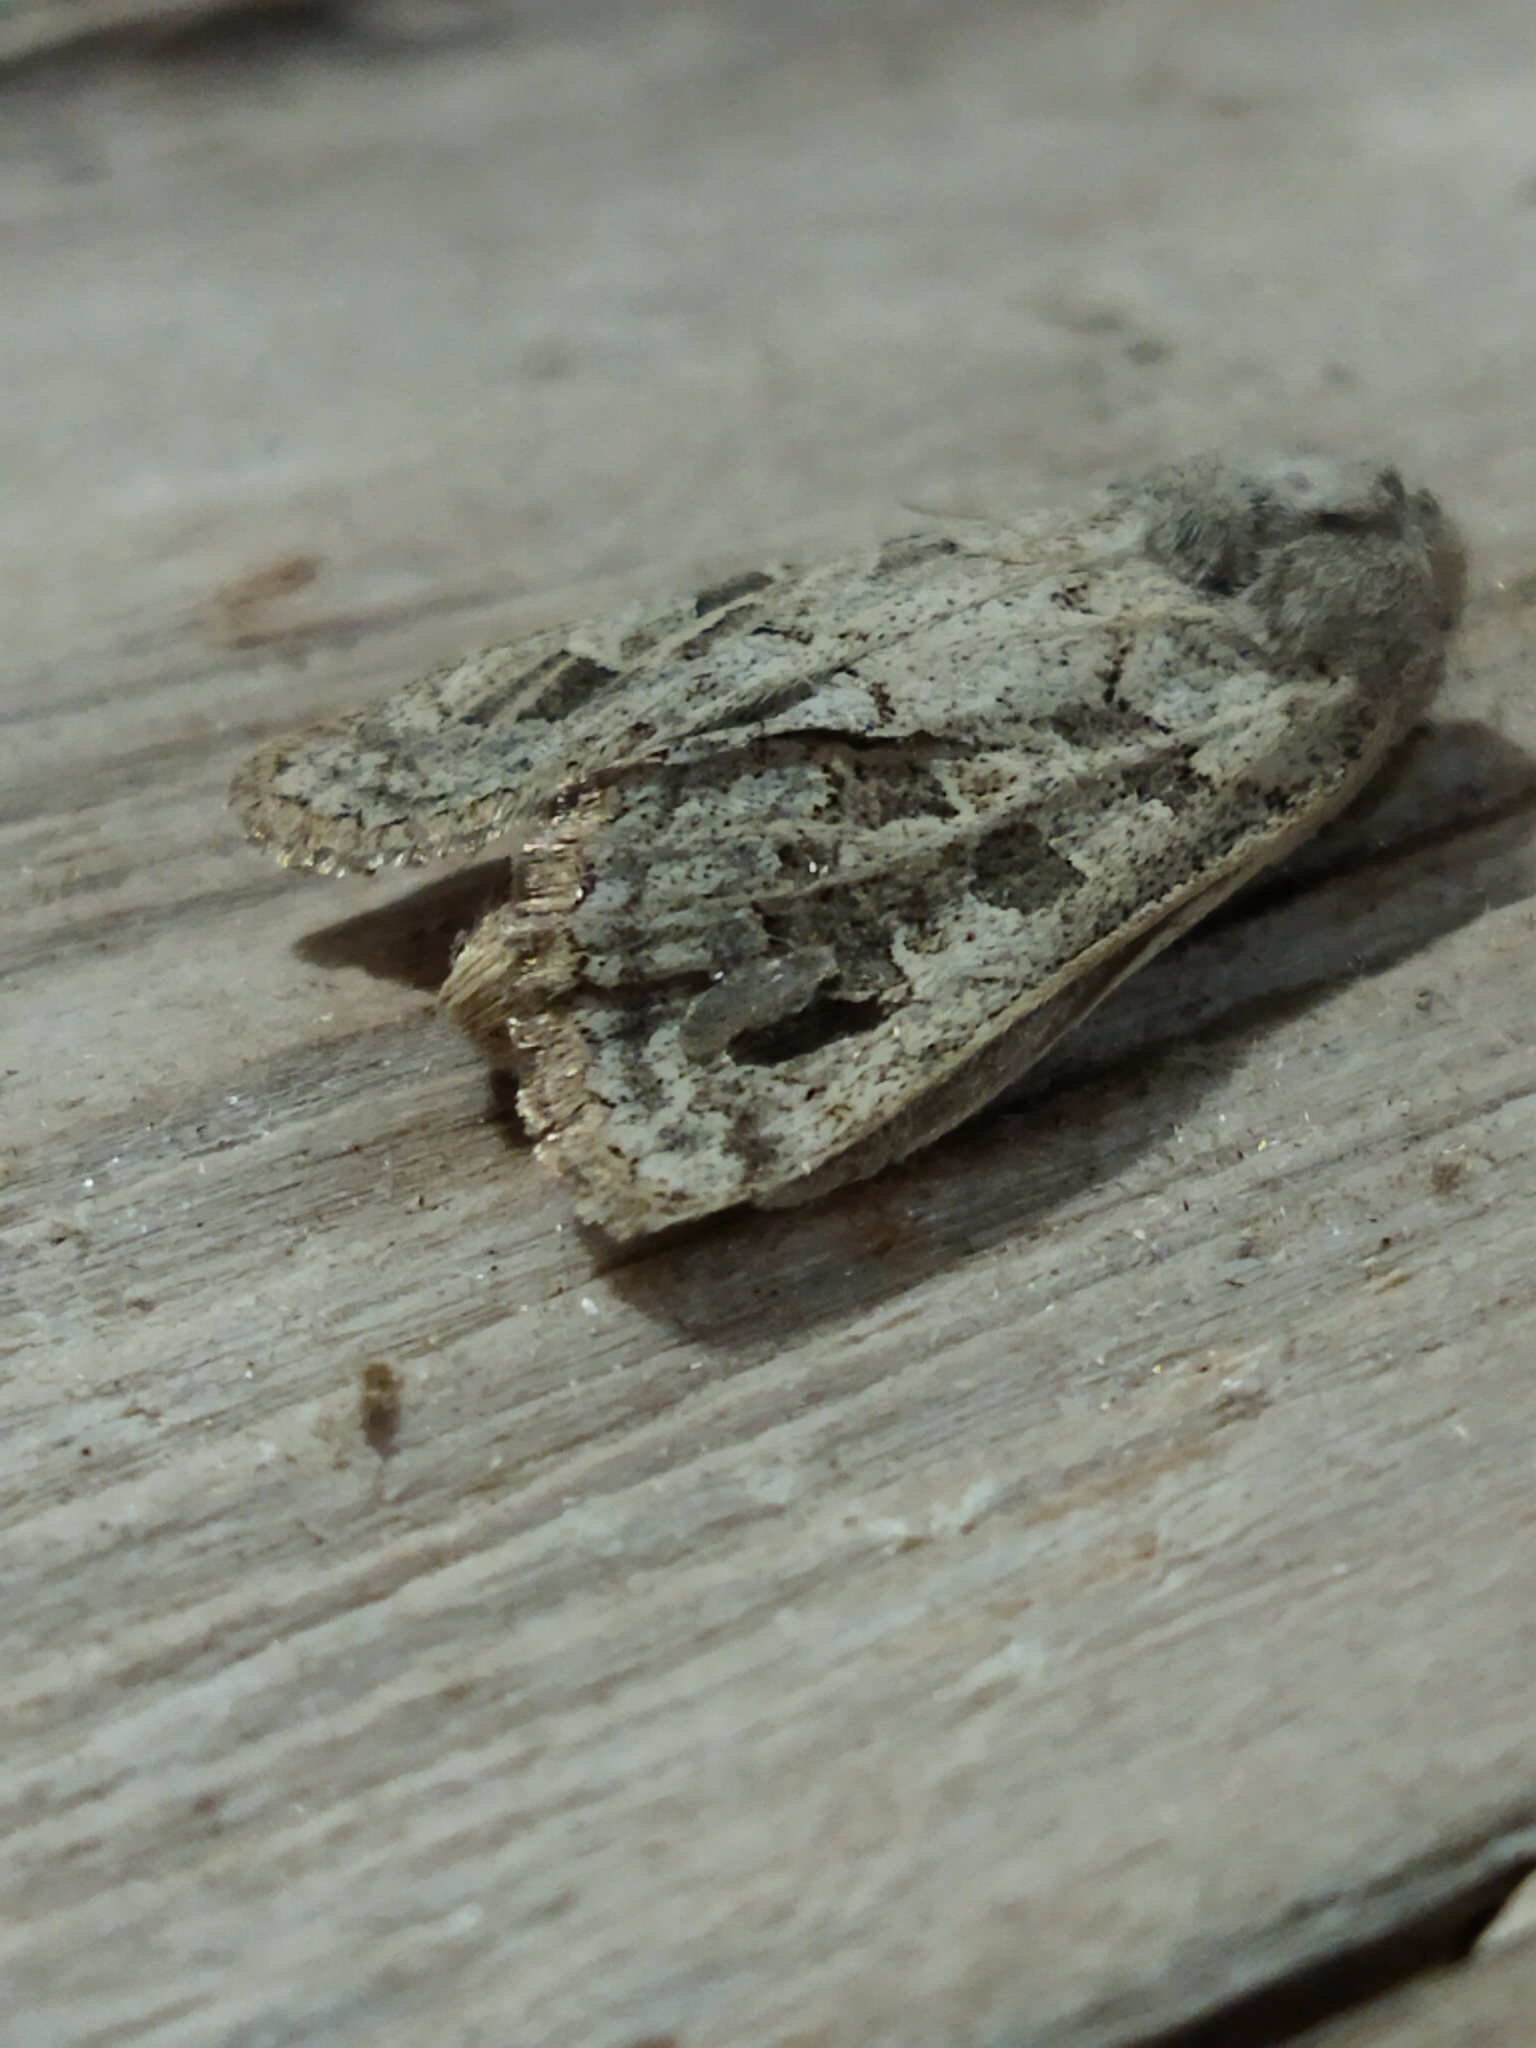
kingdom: Animalia
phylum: Arthropoda
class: Insecta
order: Lepidoptera
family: Noctuidae
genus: Episema
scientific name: Episema lederi
